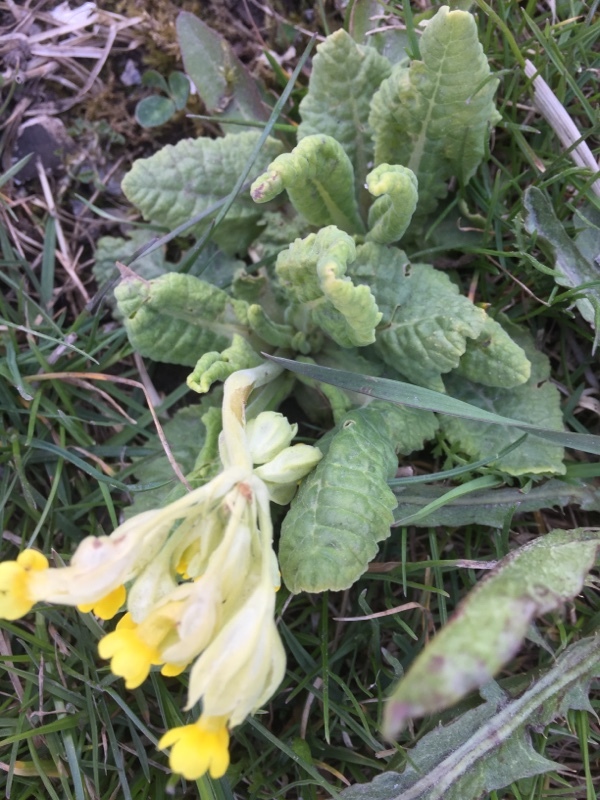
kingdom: Plantae
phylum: Tracheophyta
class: Magnoliopsida
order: Ericales
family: Primulaceae
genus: Primula
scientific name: Primula veris
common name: Cowslip
